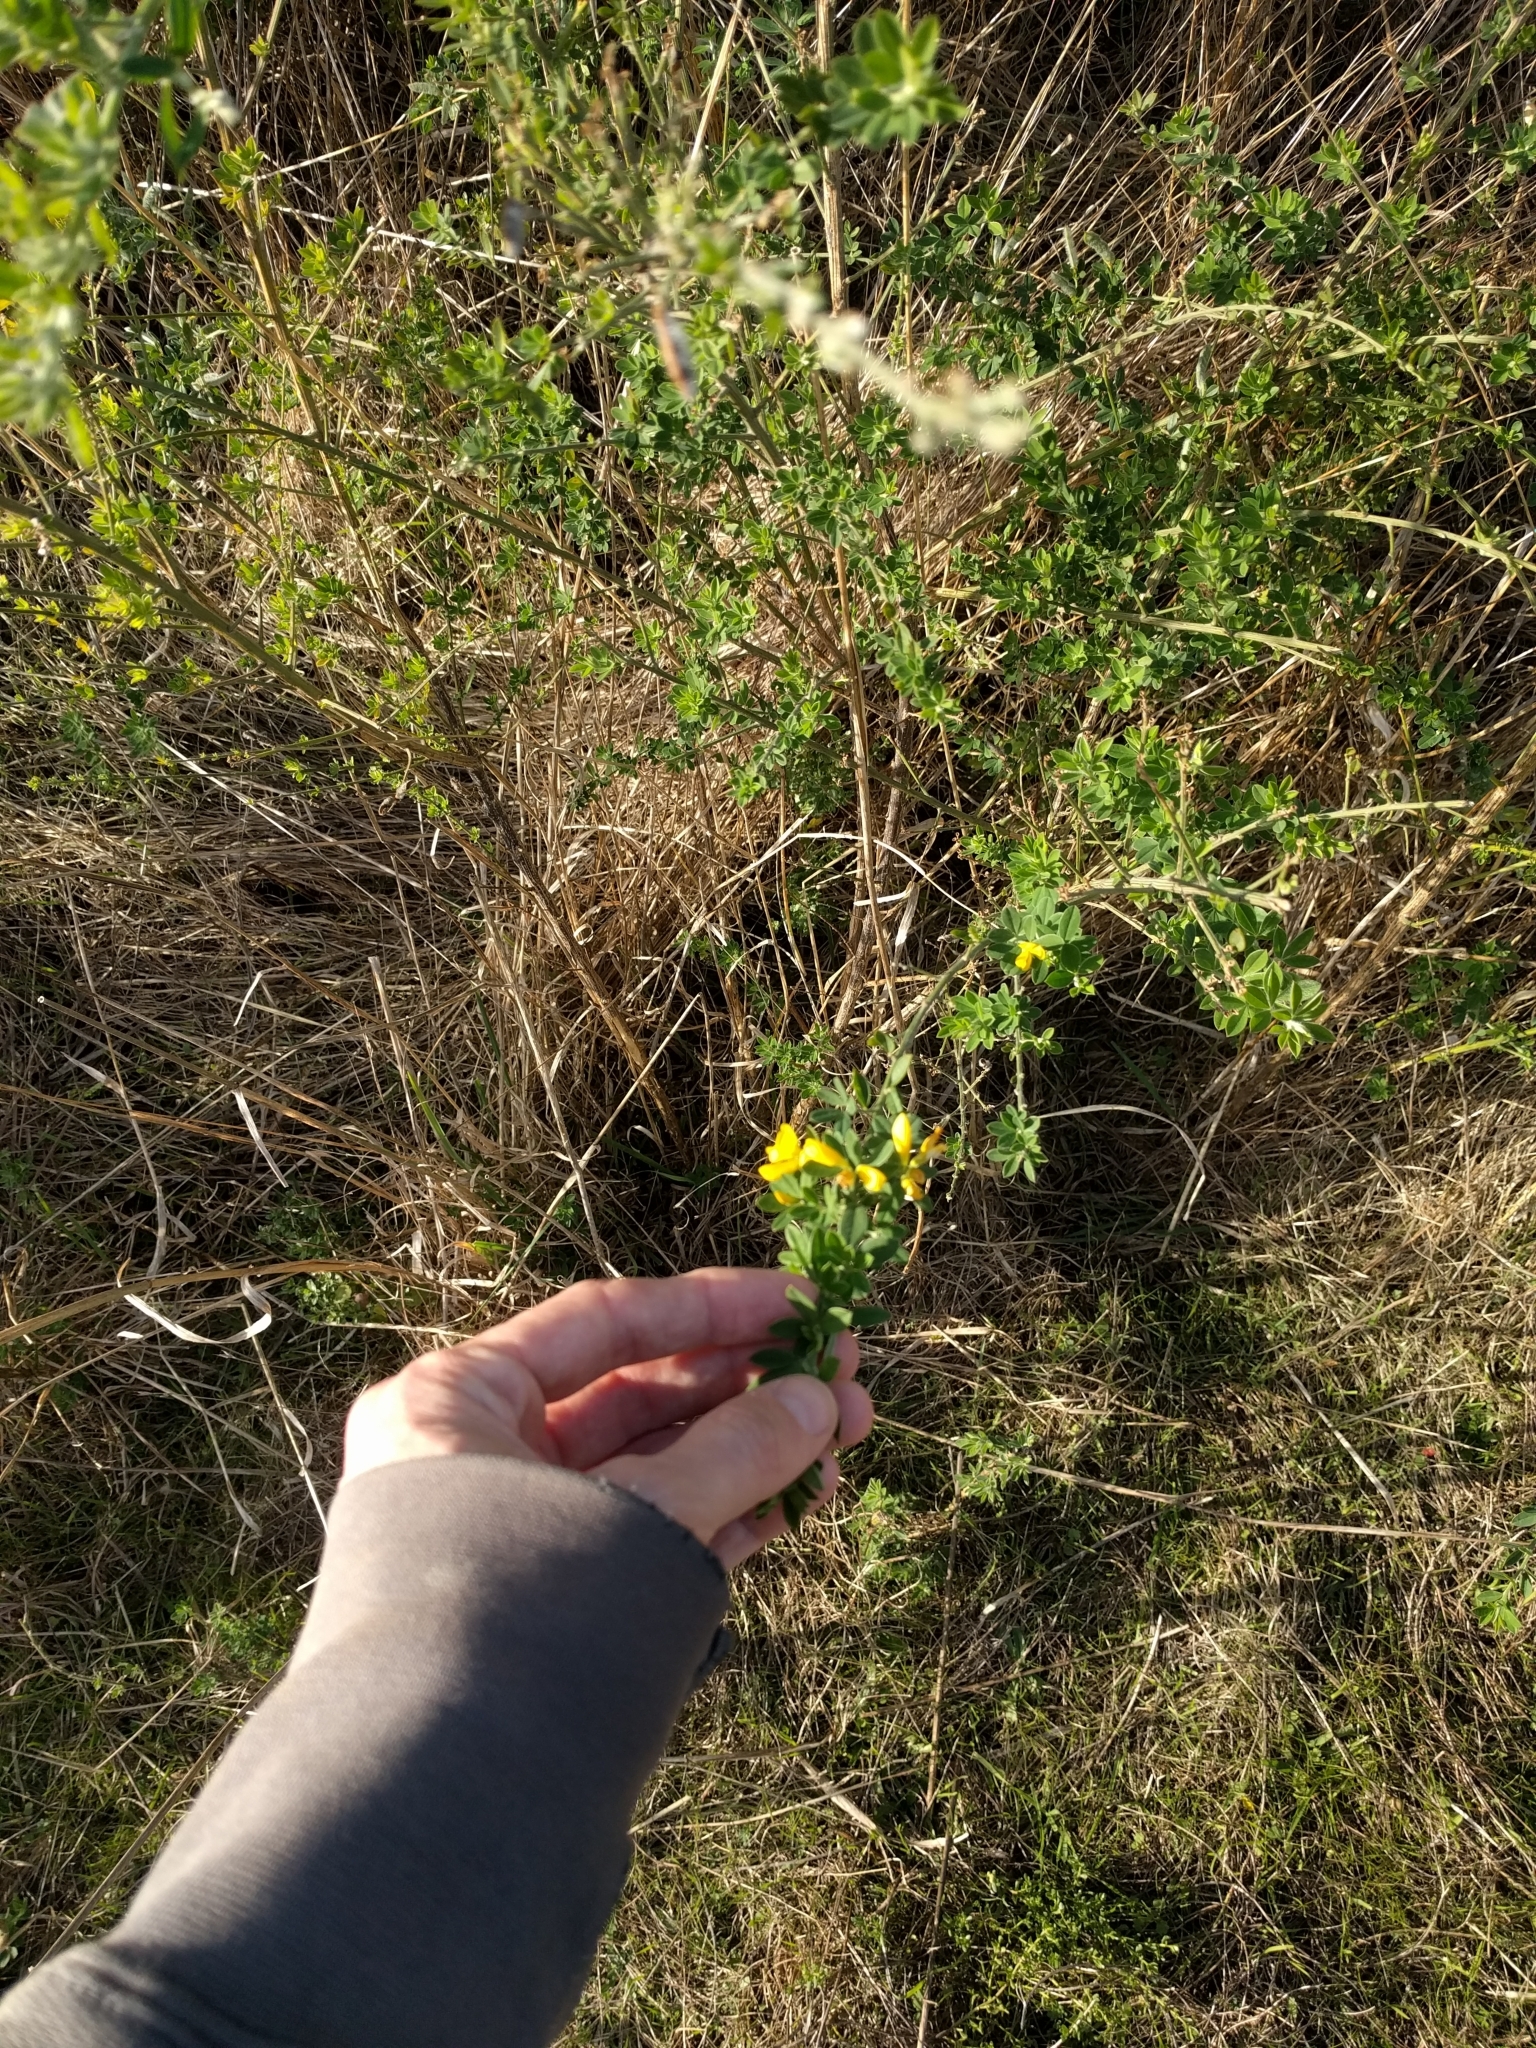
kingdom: Plantae
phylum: Tracheophyta
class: Magnoliopsida
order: Fabales
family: Fabaceae
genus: Genista
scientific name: Genista monspessulana
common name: Montpellier broom
